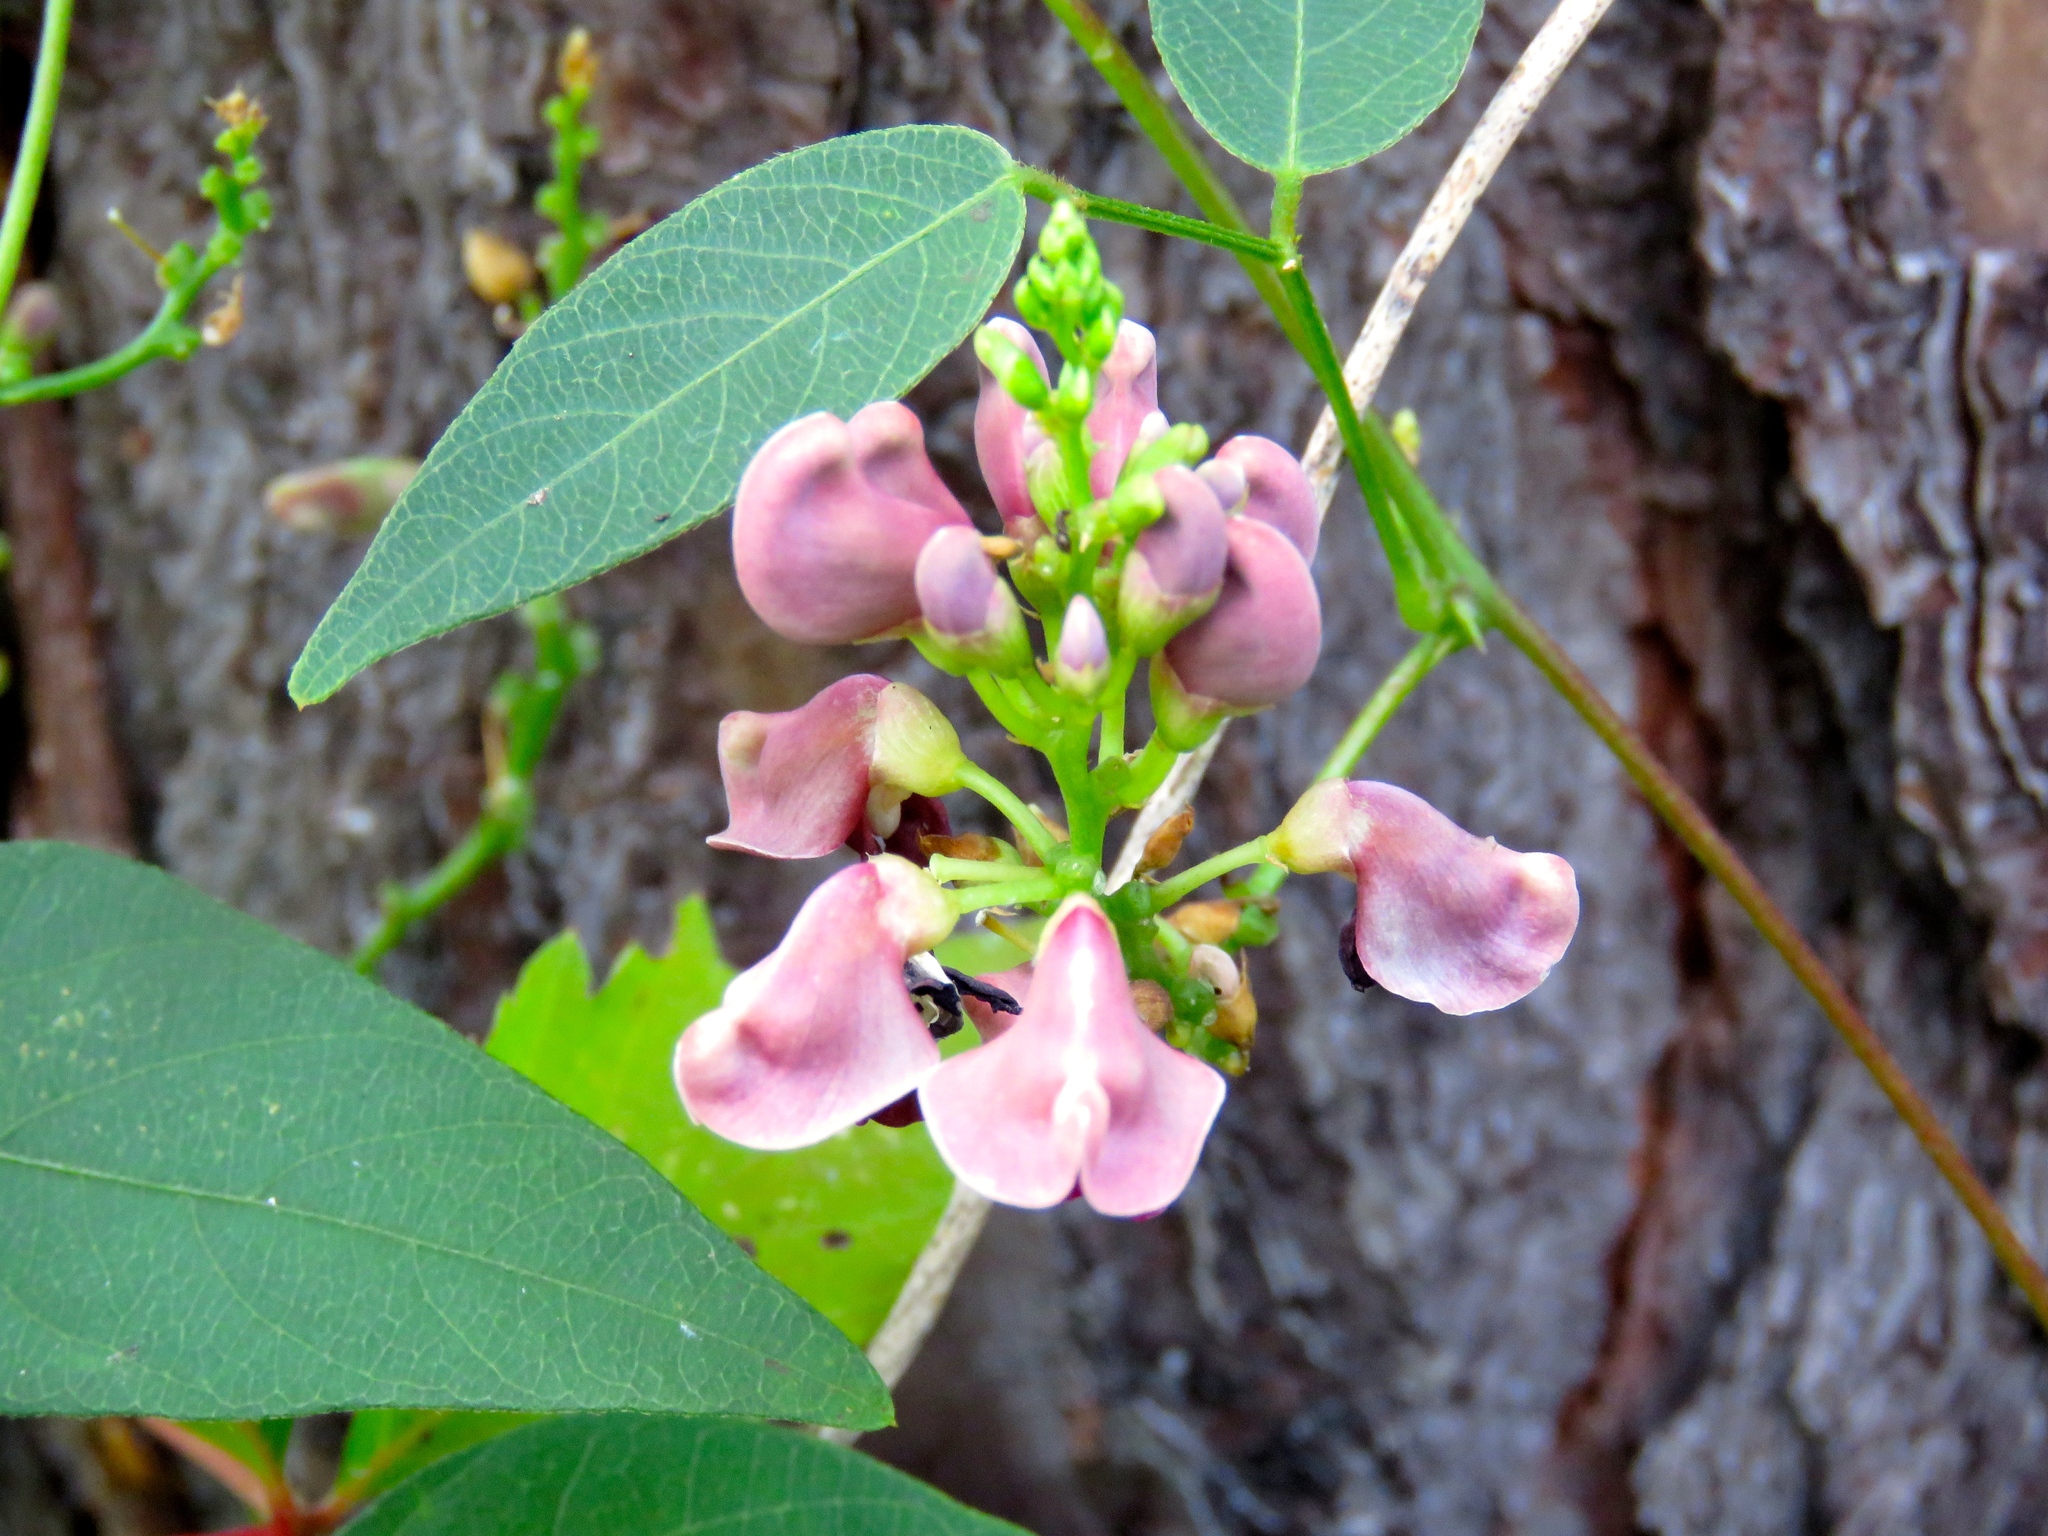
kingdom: Plantae
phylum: Tracheophyta
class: Magnoliopsida
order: Fabales
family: Fabaceae
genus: Apios
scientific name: Apios americana
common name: American potato-bean
